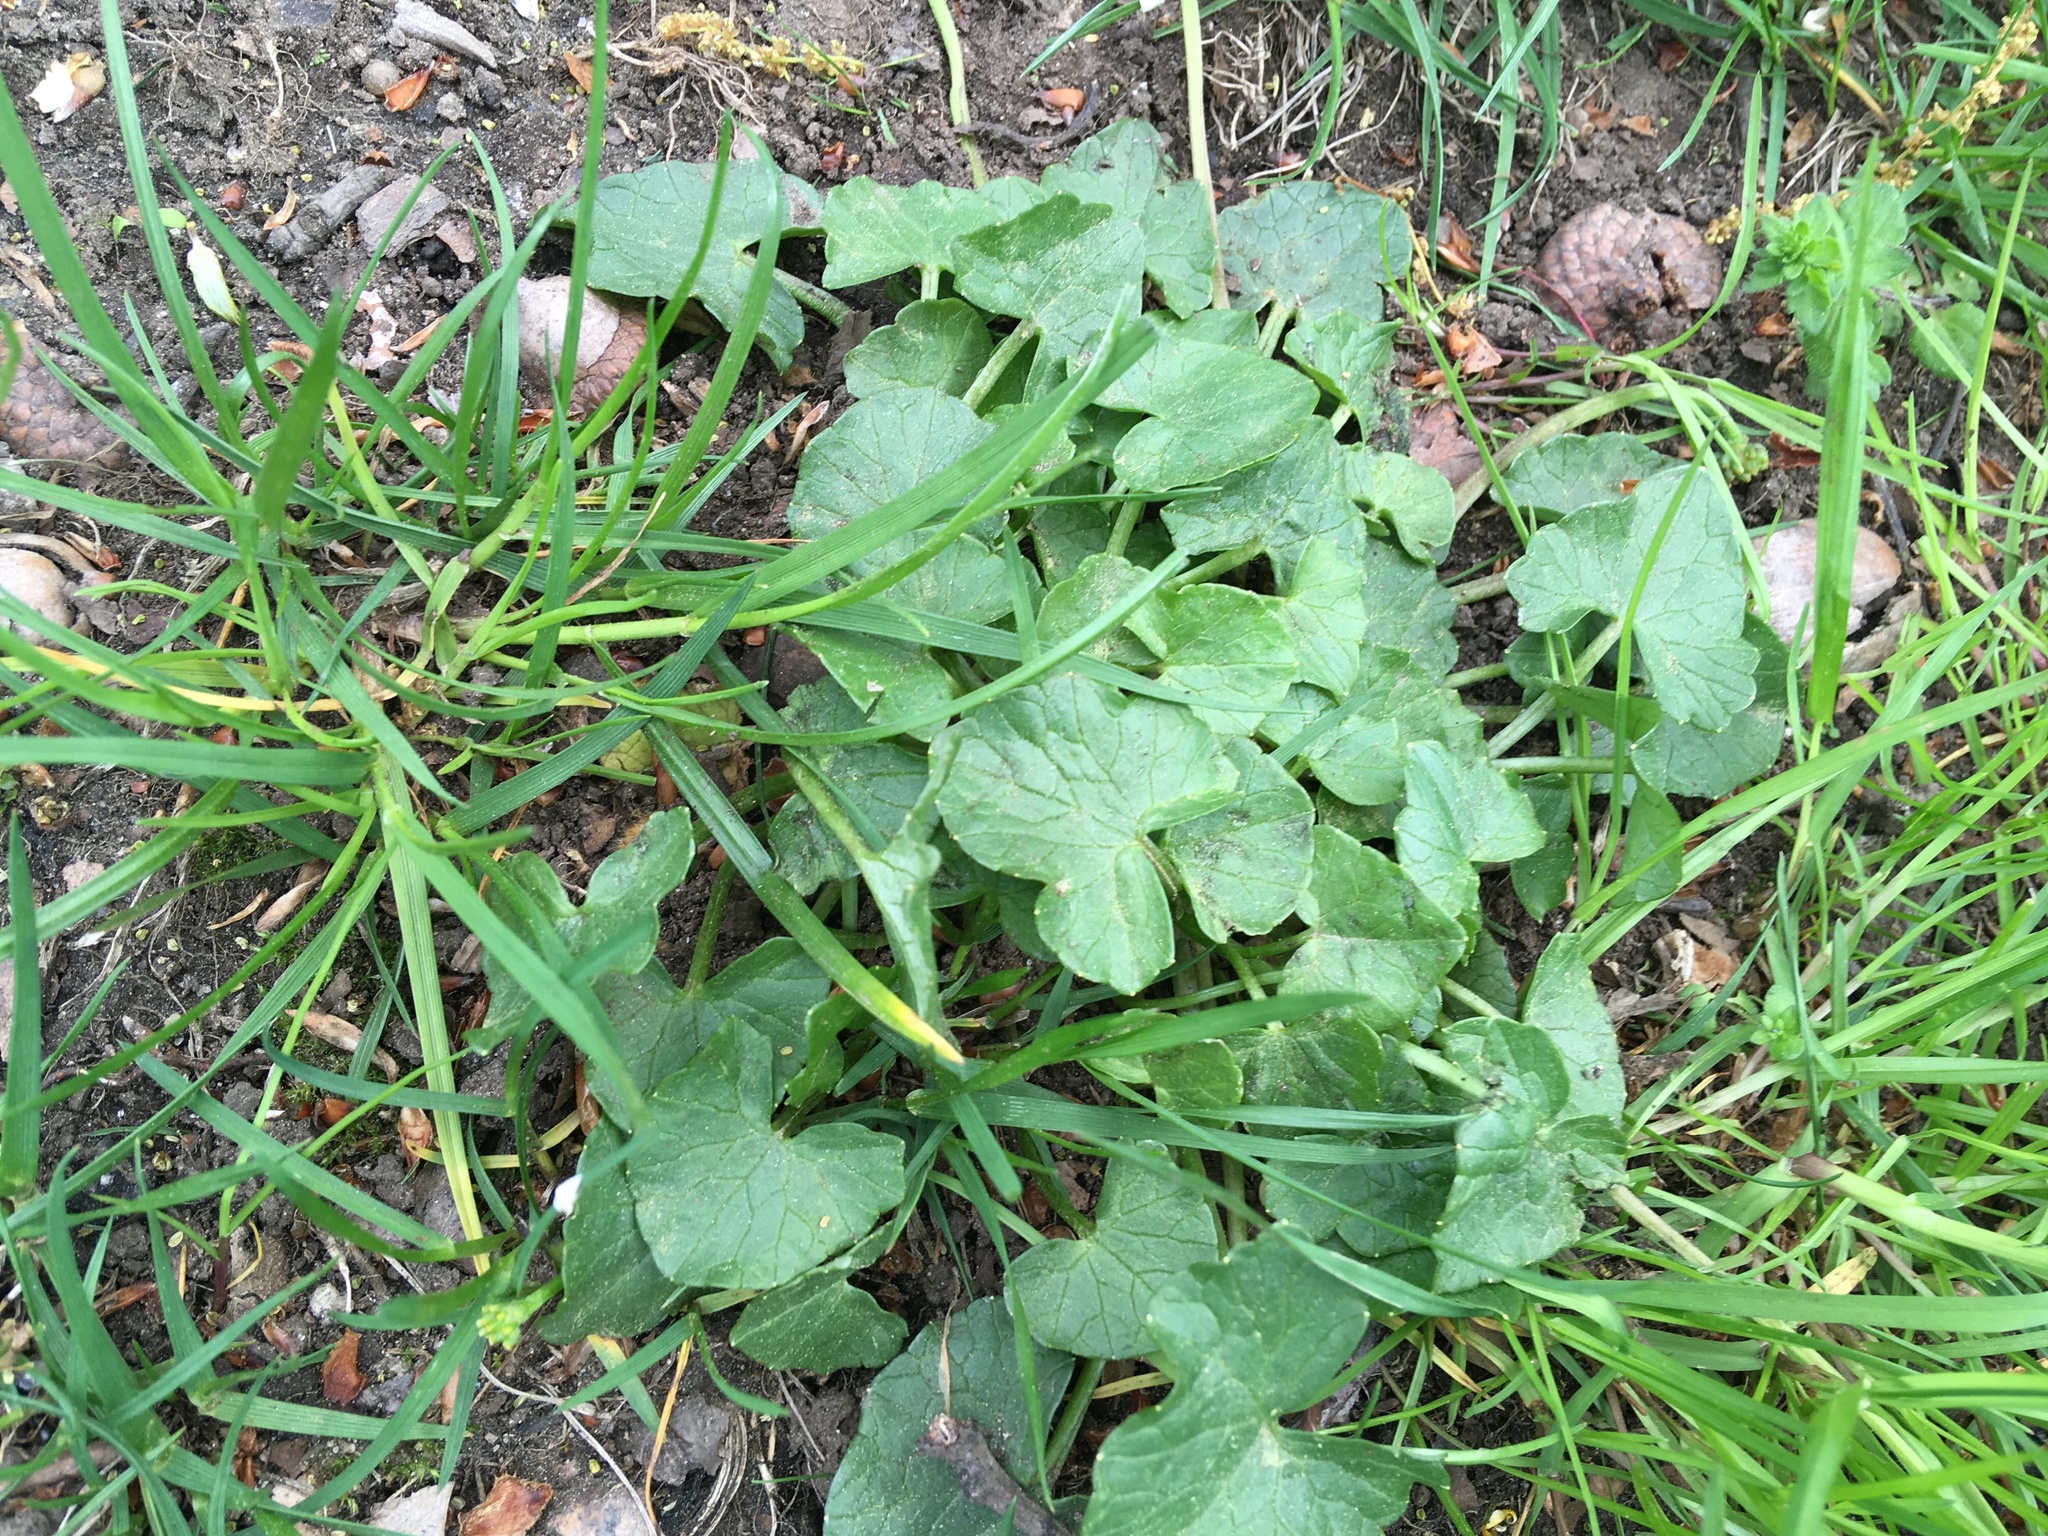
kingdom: Plantae
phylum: Tracheophyta
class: Magnoliopsida
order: Ranunculales
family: Ranunculaceae
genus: Ficaria
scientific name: Ficaria verna
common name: Lesser celandine
